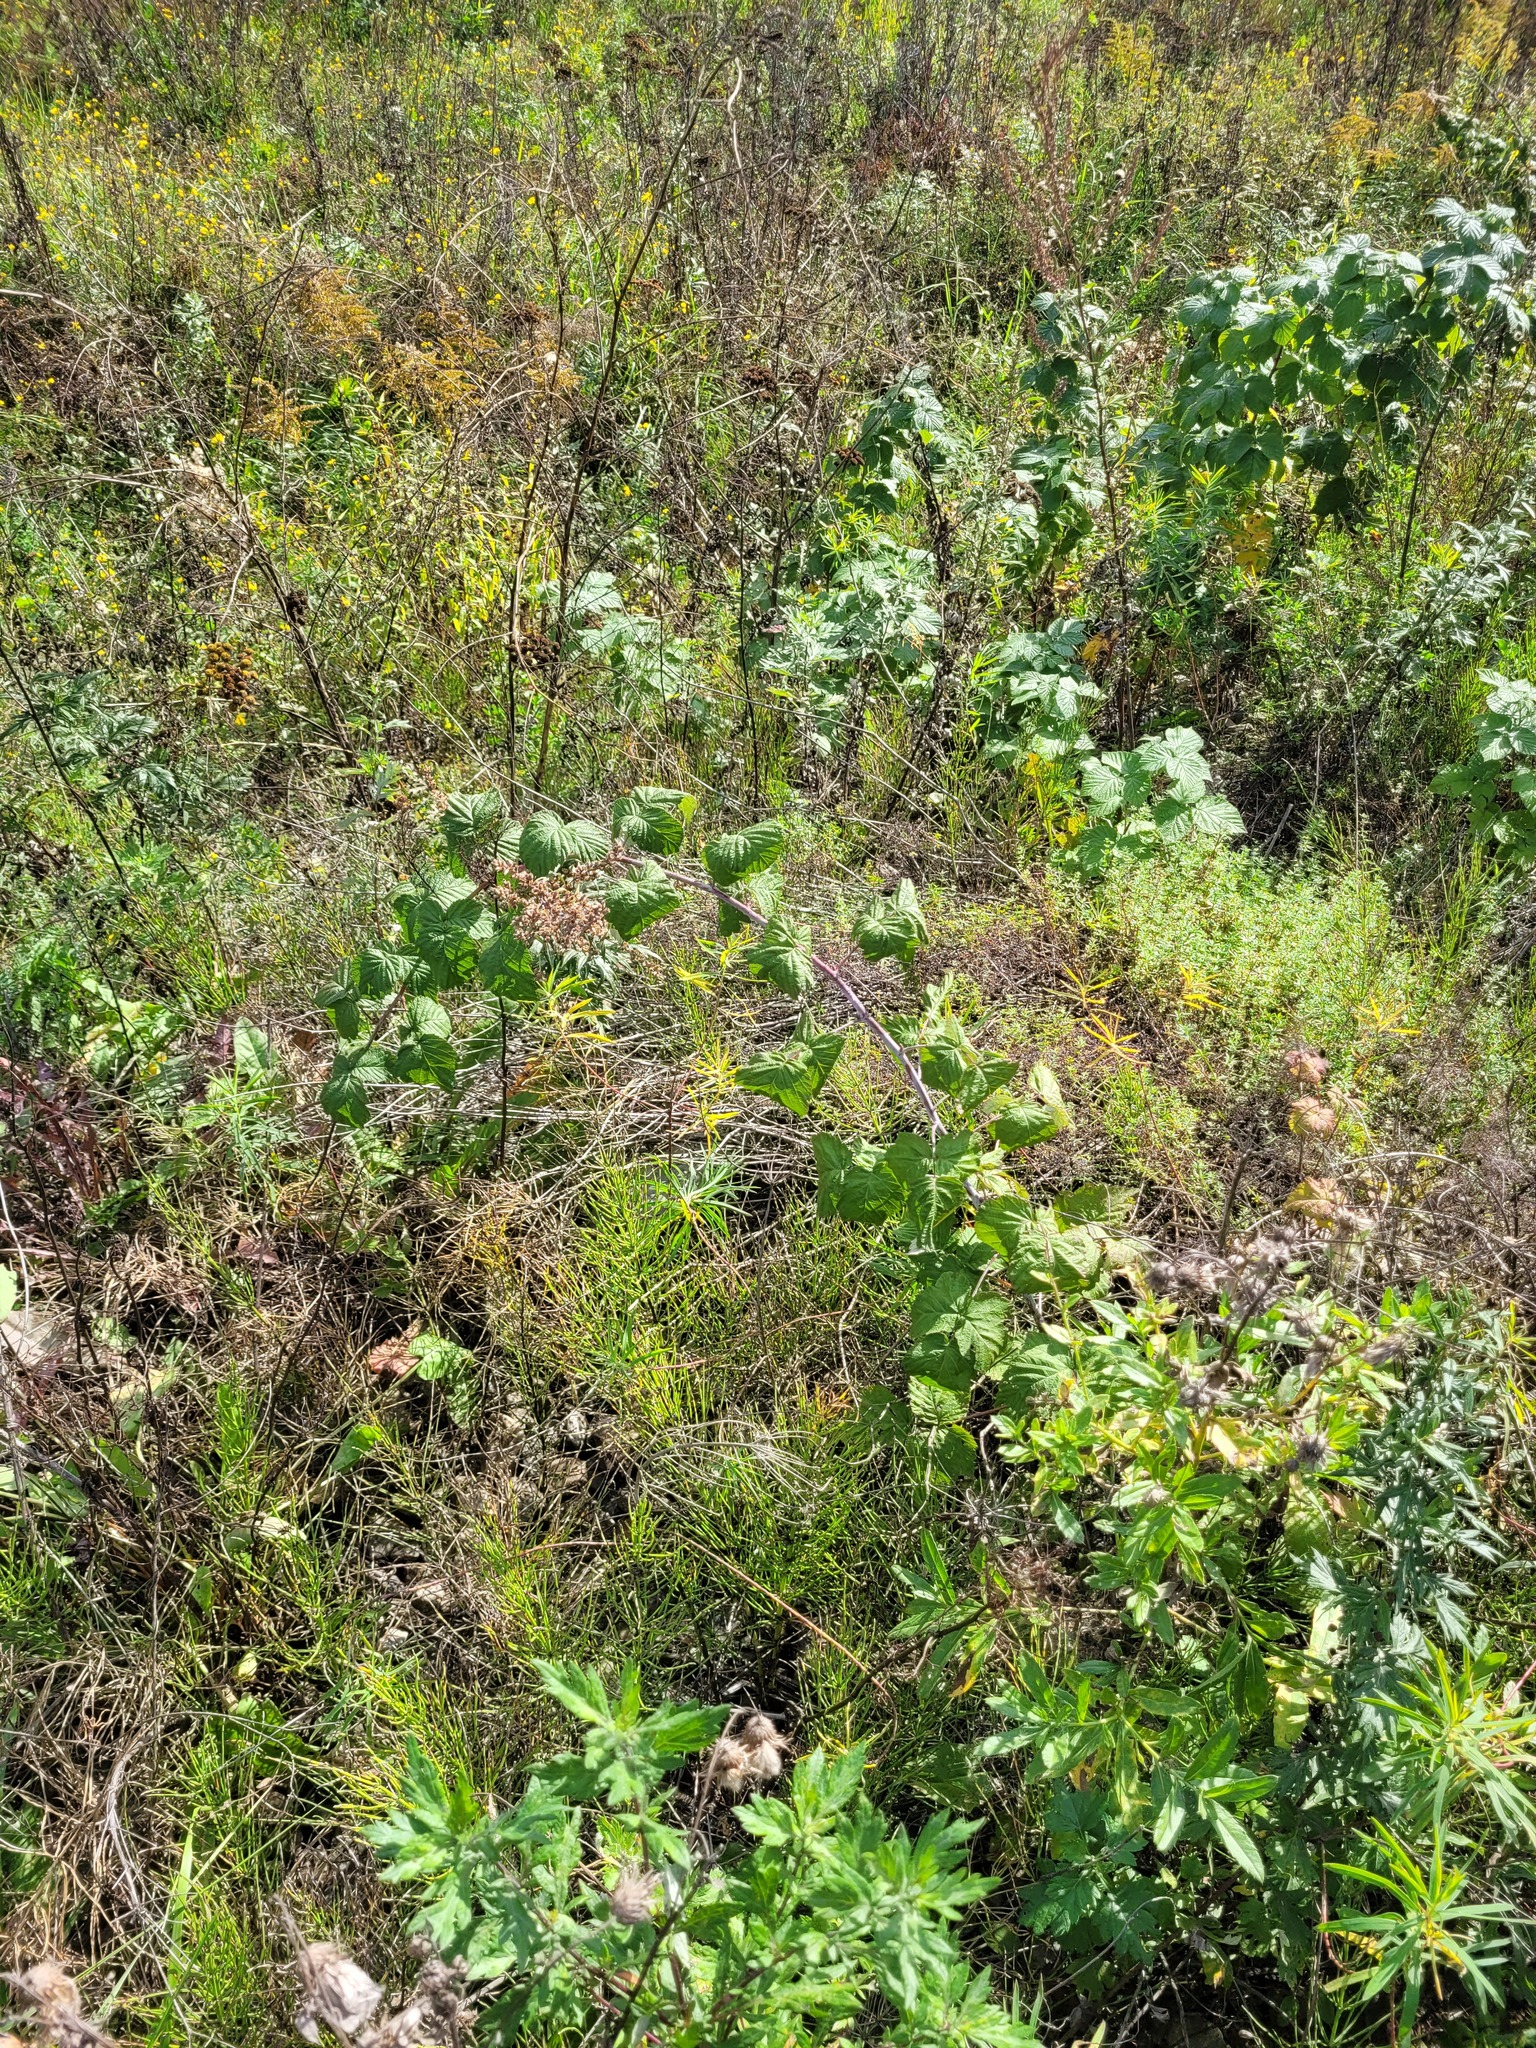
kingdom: Plantae
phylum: Tracheophyta
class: Magnoliopsida
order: Rosales
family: Rosaceae
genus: Rubus
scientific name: Rubus occidentalis
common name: Black raspberry
